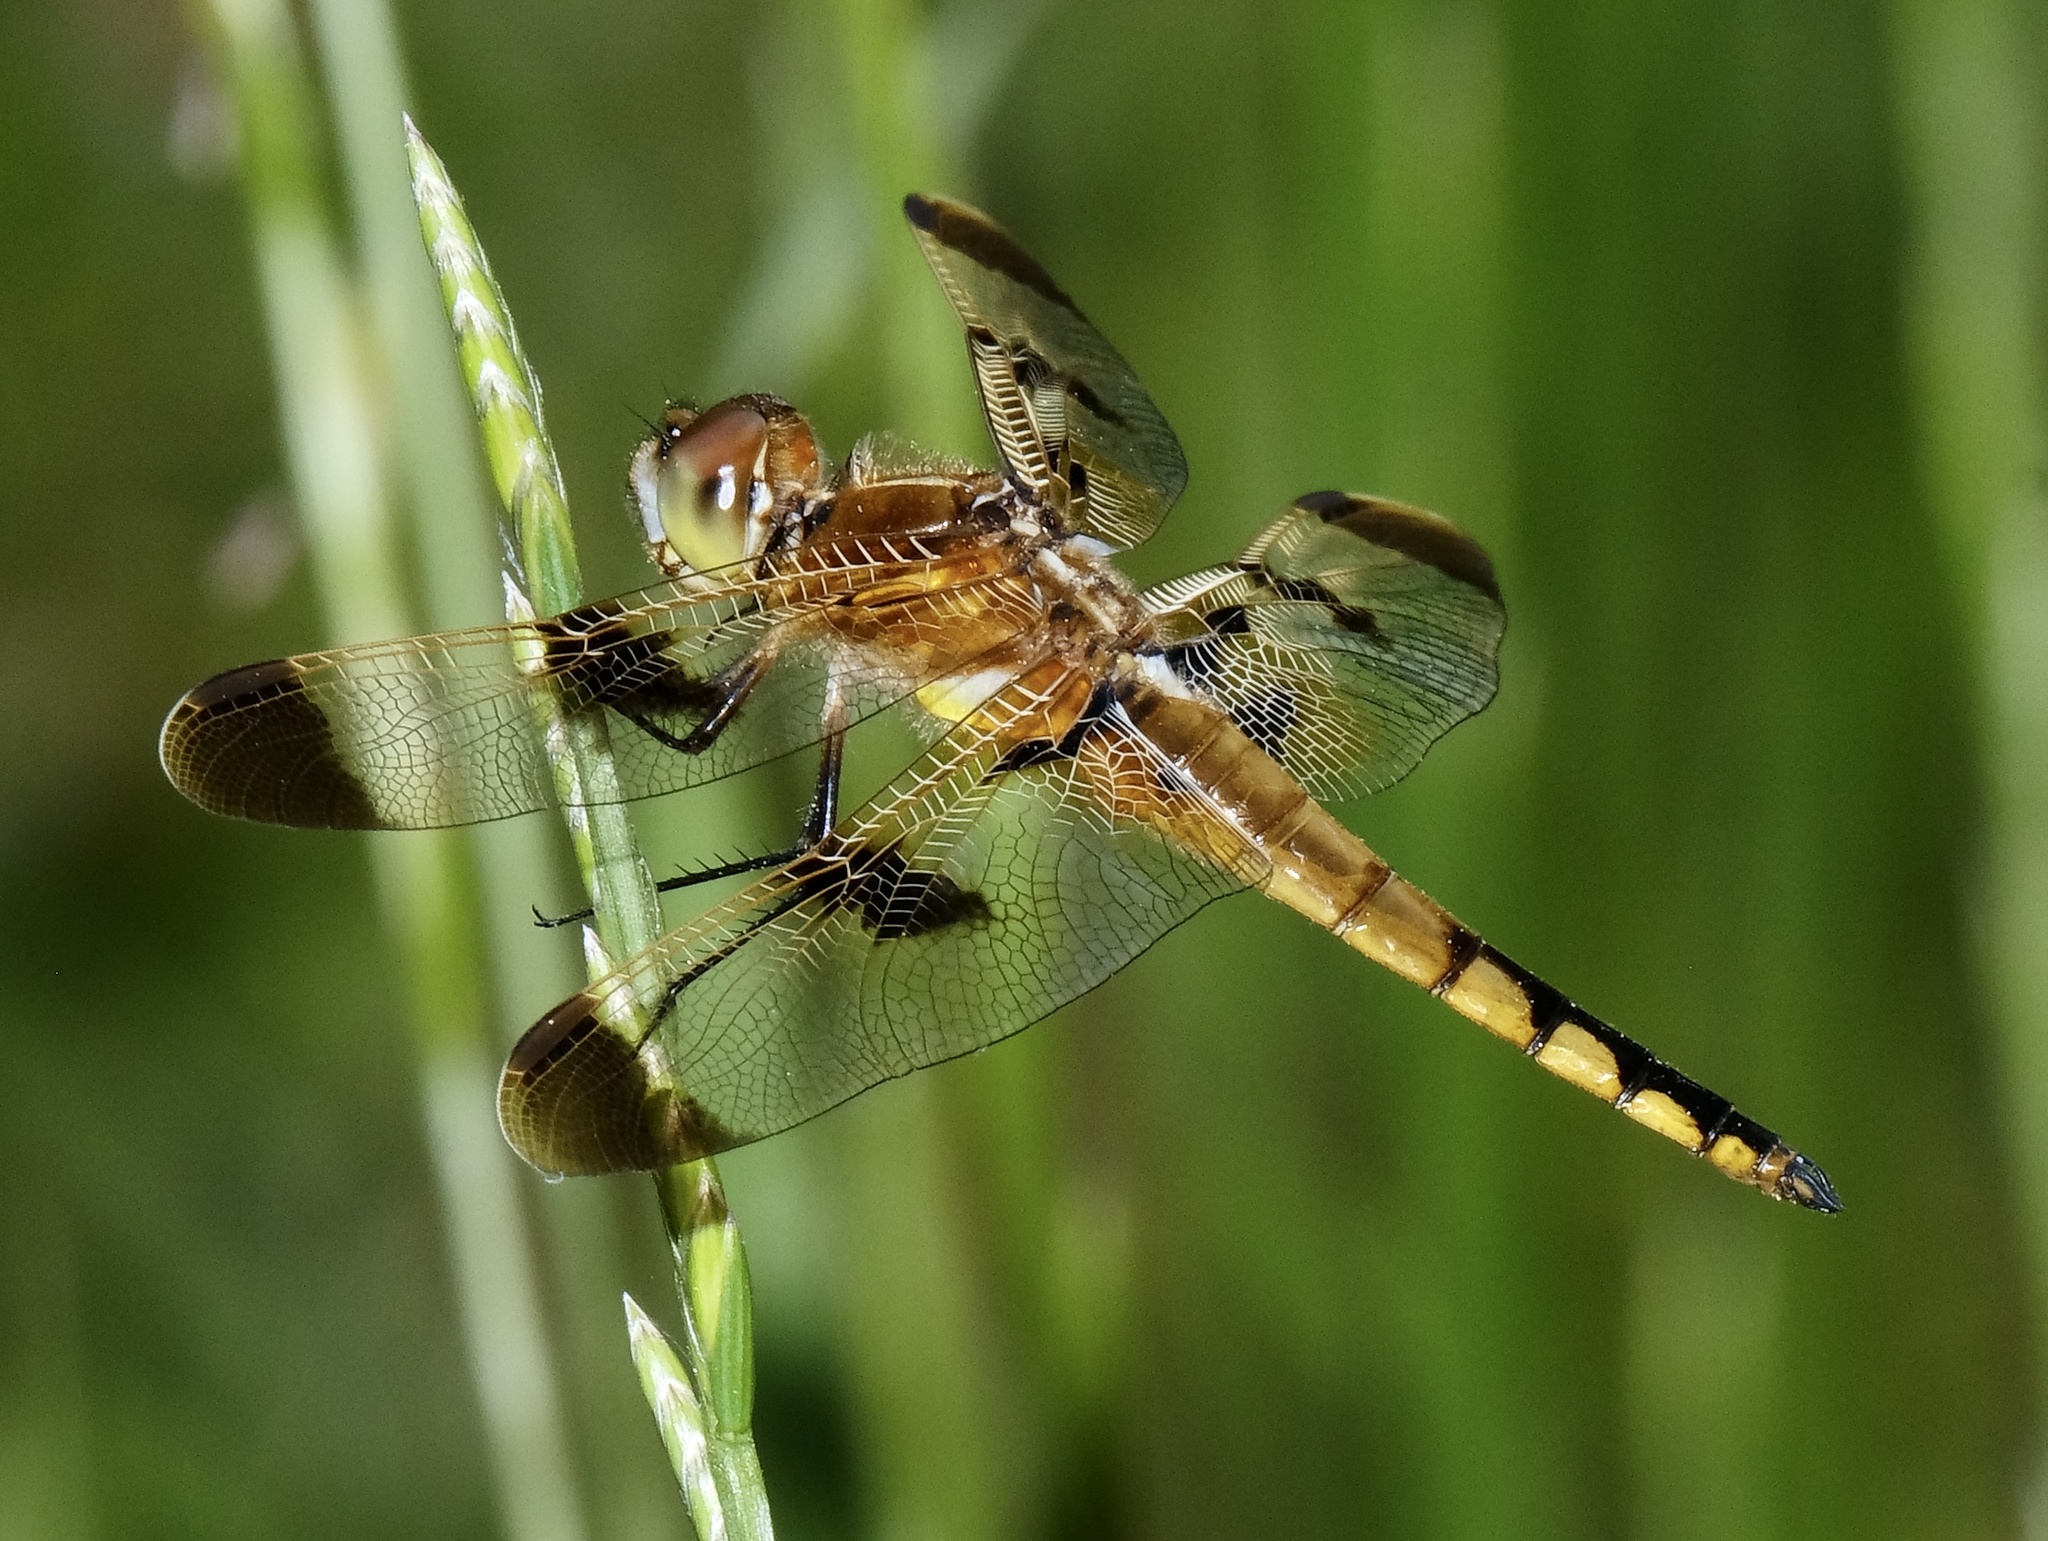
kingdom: Animalia
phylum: Arthropoda
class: Insecta
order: Odonata
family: Libellulidae
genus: Libellula
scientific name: Libellula semifasciata
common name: Painted skimmer
